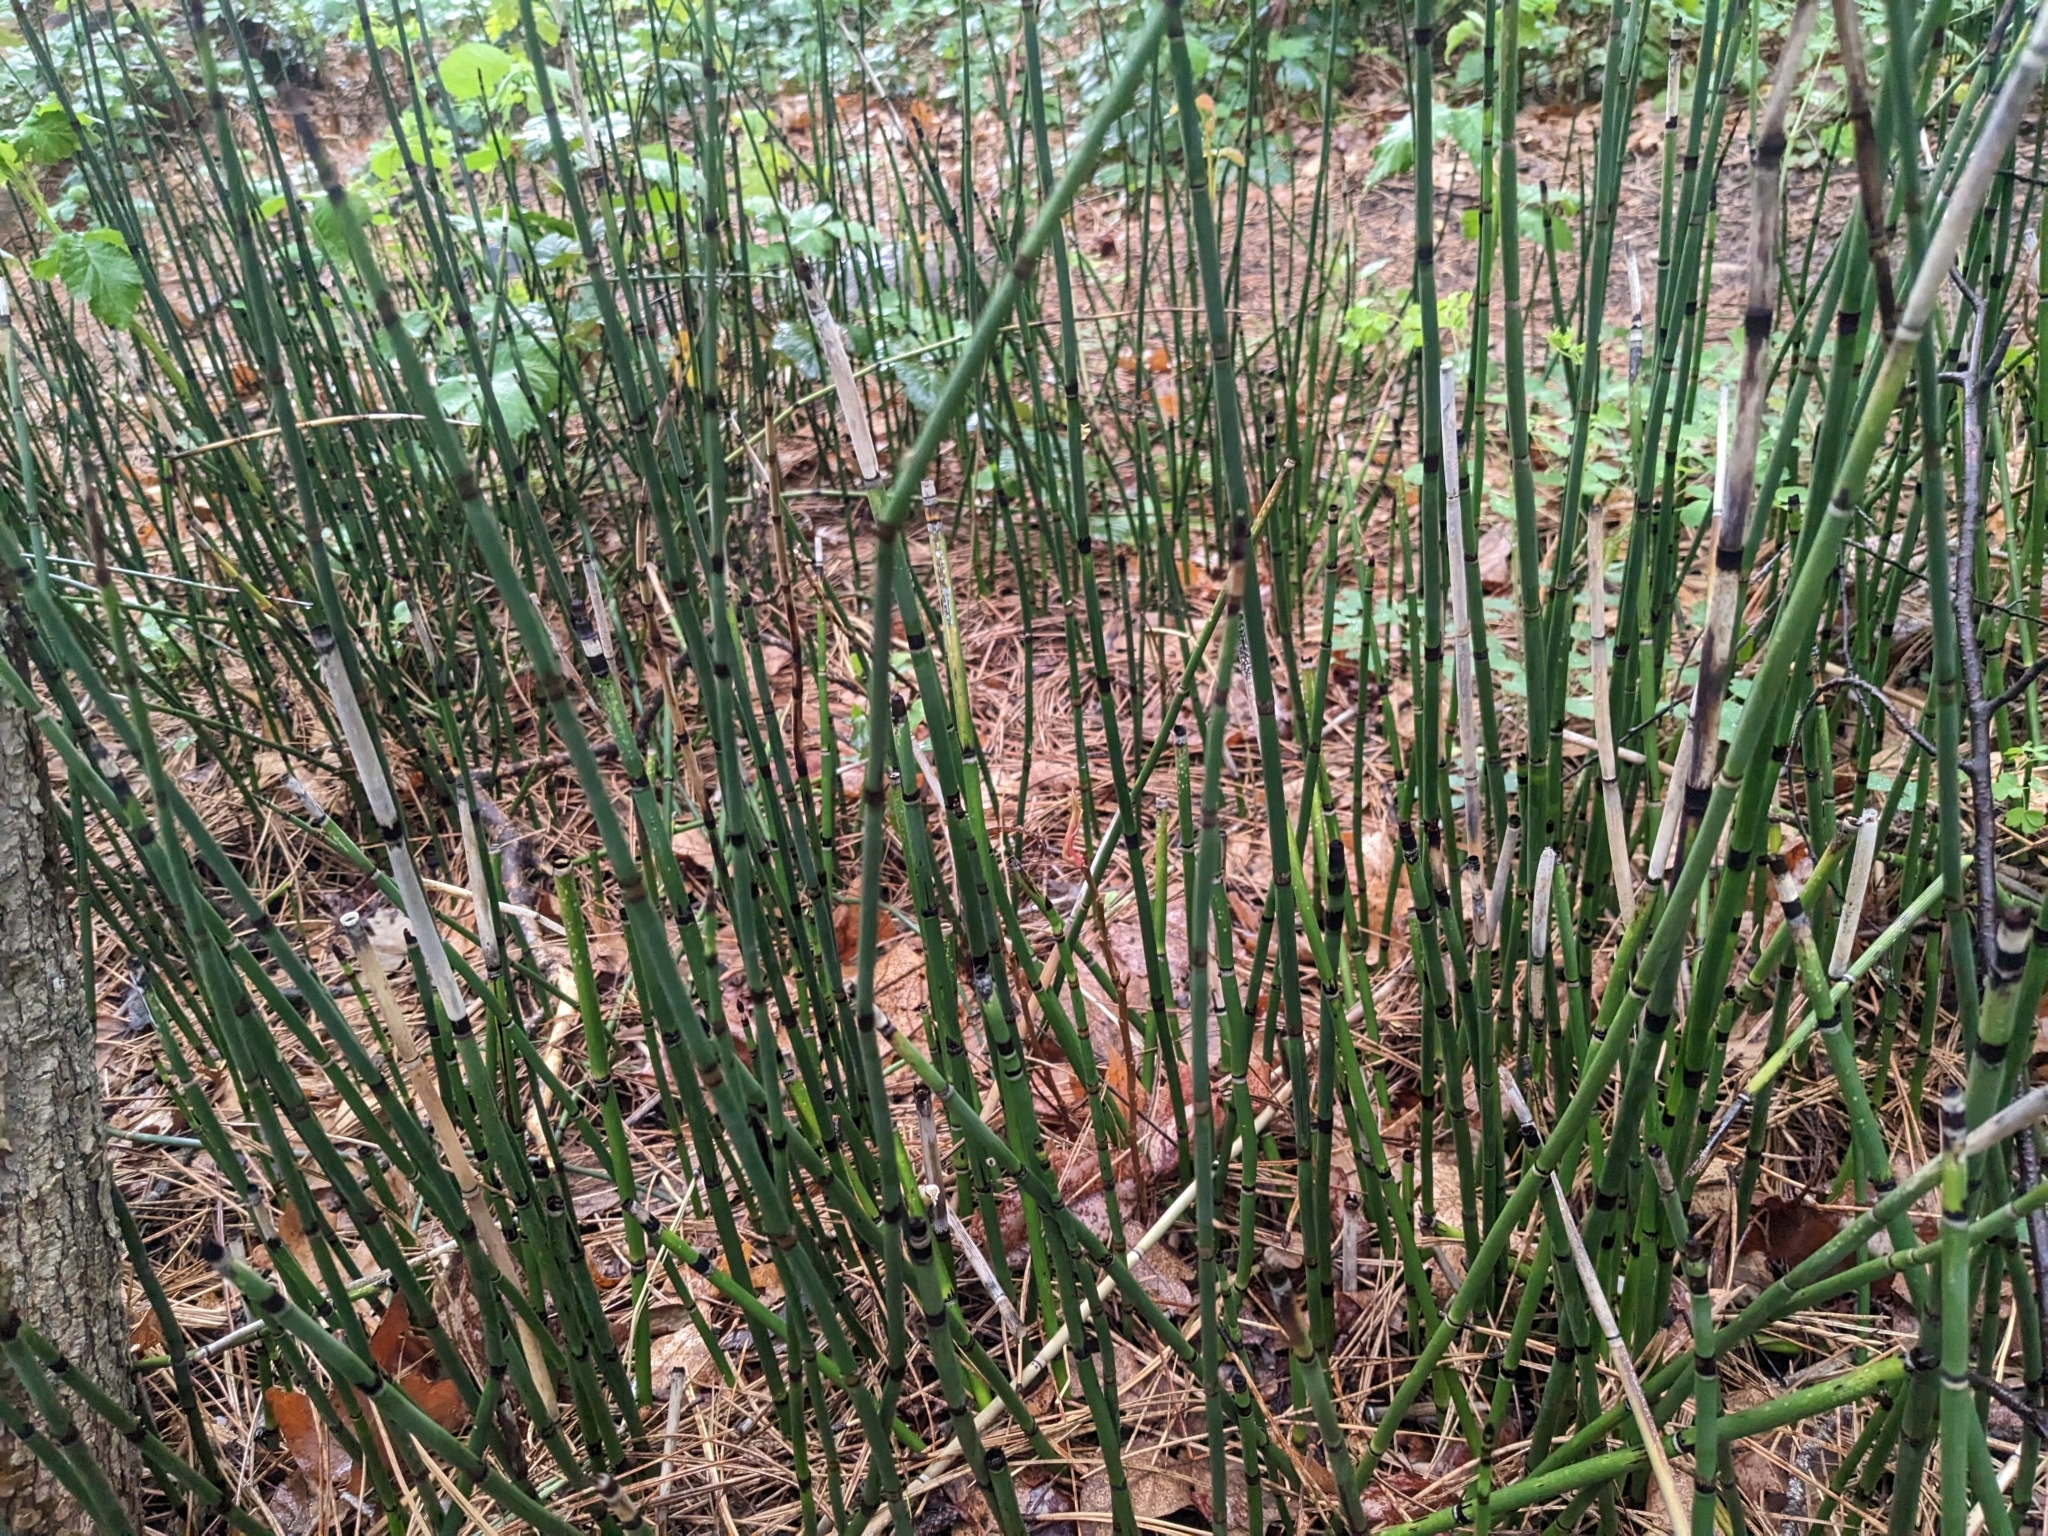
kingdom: Plantae
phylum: Tracheophyta
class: Polypodiopsida
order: Equisetales
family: Equisetaceae
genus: Equisetum
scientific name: Equisetum praealtum
